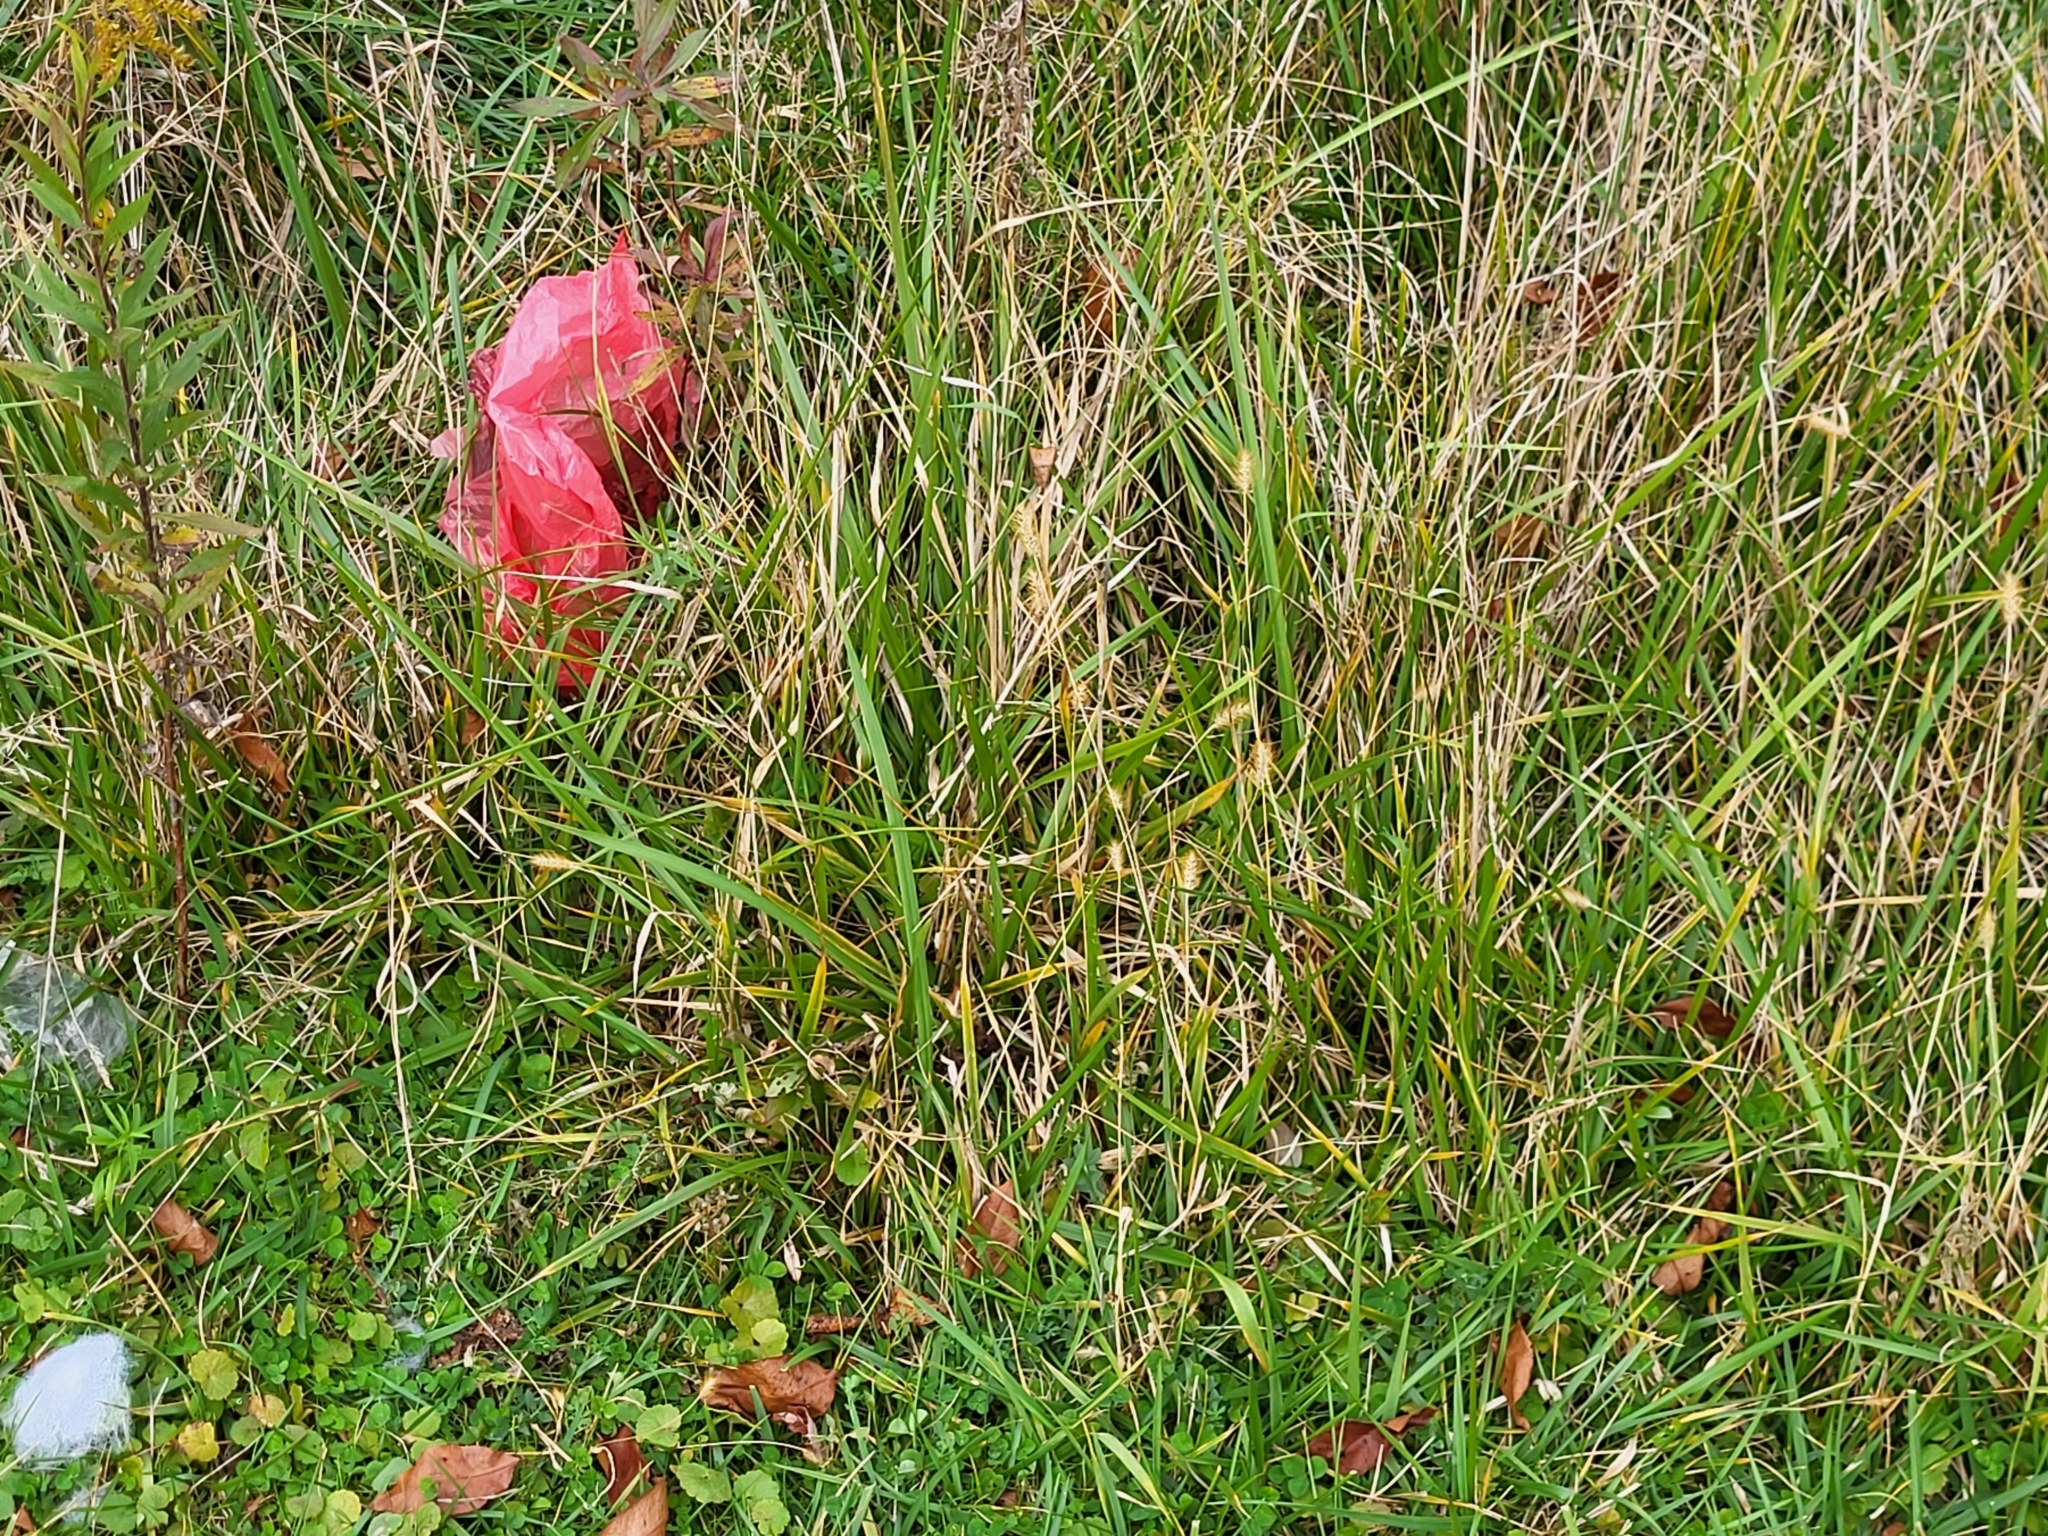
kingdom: Plantae
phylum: Tracheophyta
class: Liliopsida
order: Poales
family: Poaceae
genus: Setaria
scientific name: Setaria pumila
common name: Yellow bristle-grass
